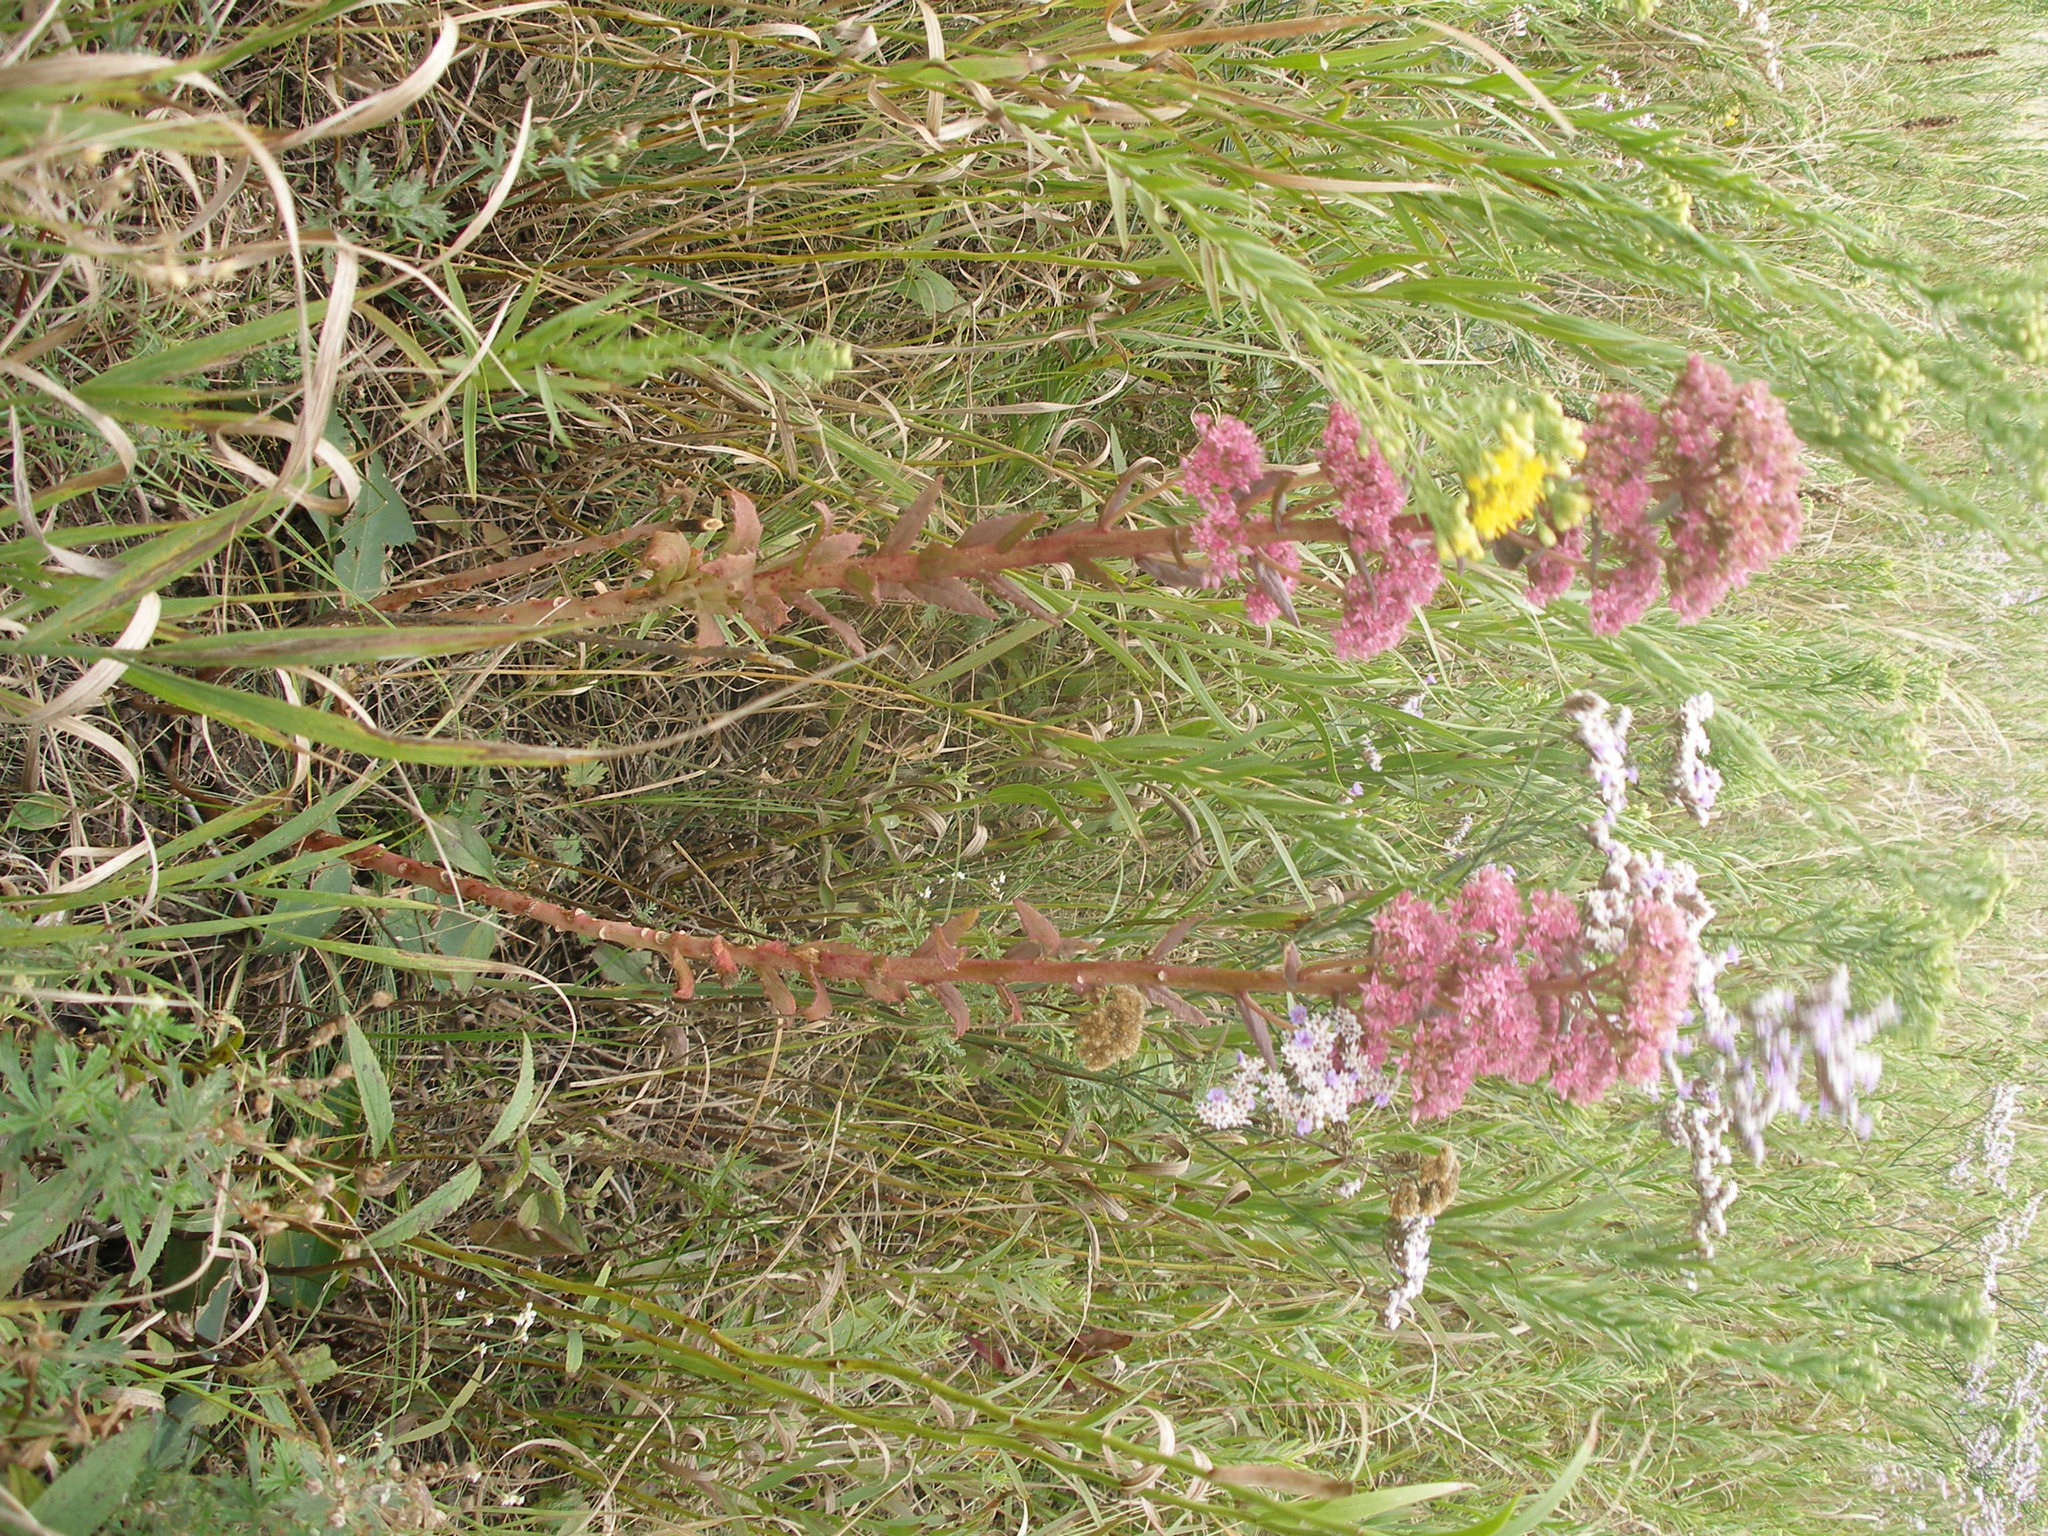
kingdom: Plantae
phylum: Tracheophyta
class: Magnoliopsida
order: Saxifragales
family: Crassulaceae
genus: Hylotelephium
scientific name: Hylotelephium telephium
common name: Live-forever
